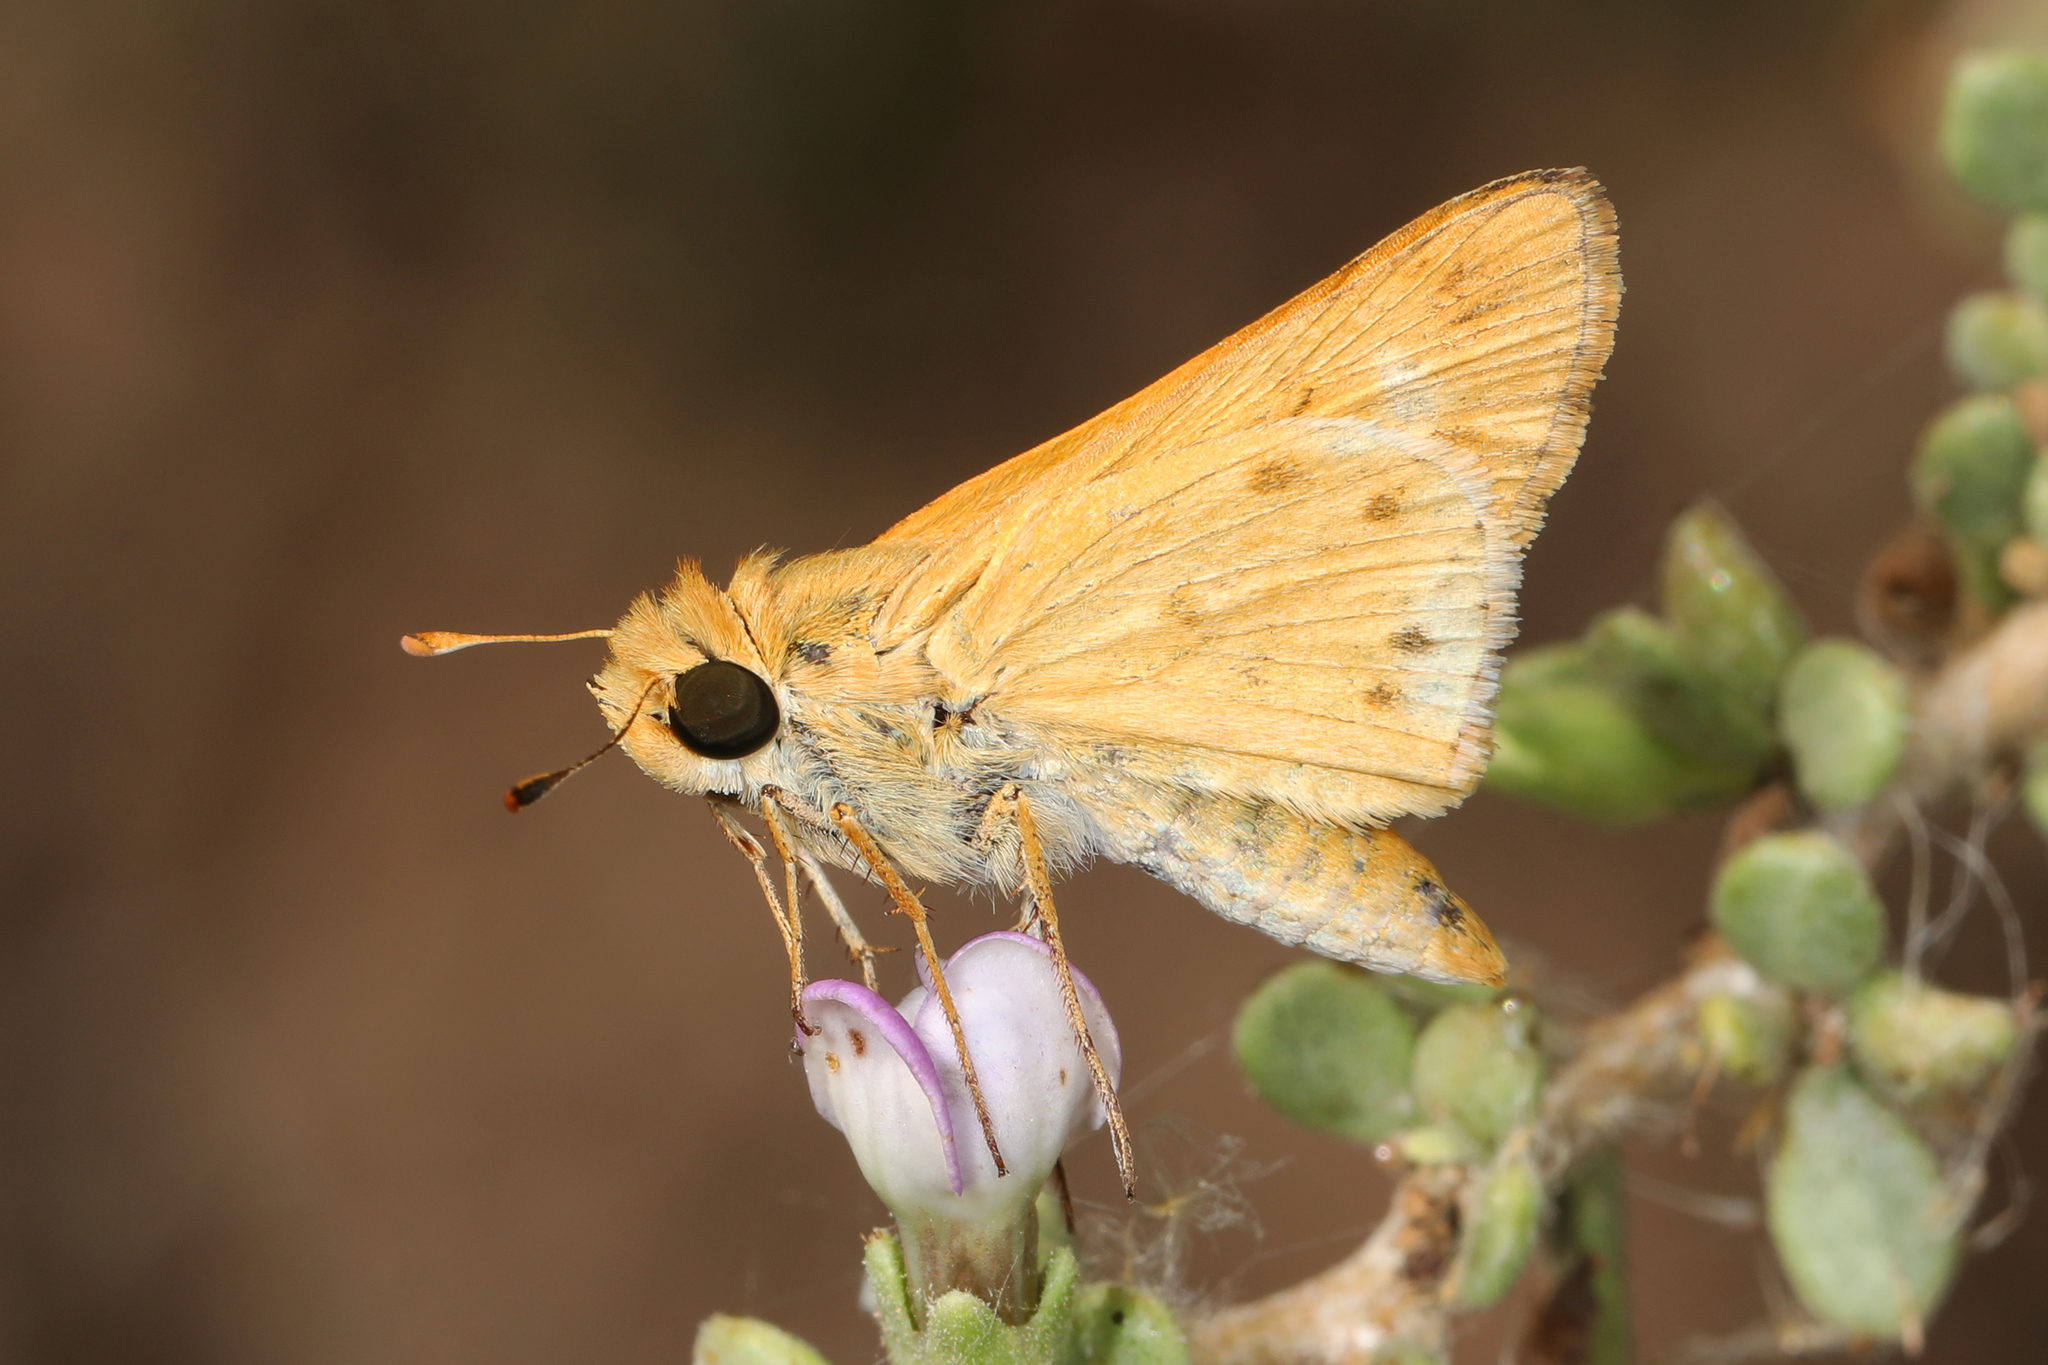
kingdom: Animalia
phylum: Arthropoda
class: Insecta
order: Lepidoptera
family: Hesperiidae
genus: Hylephila
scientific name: Hylephila phyleus
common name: Fiery skipper
